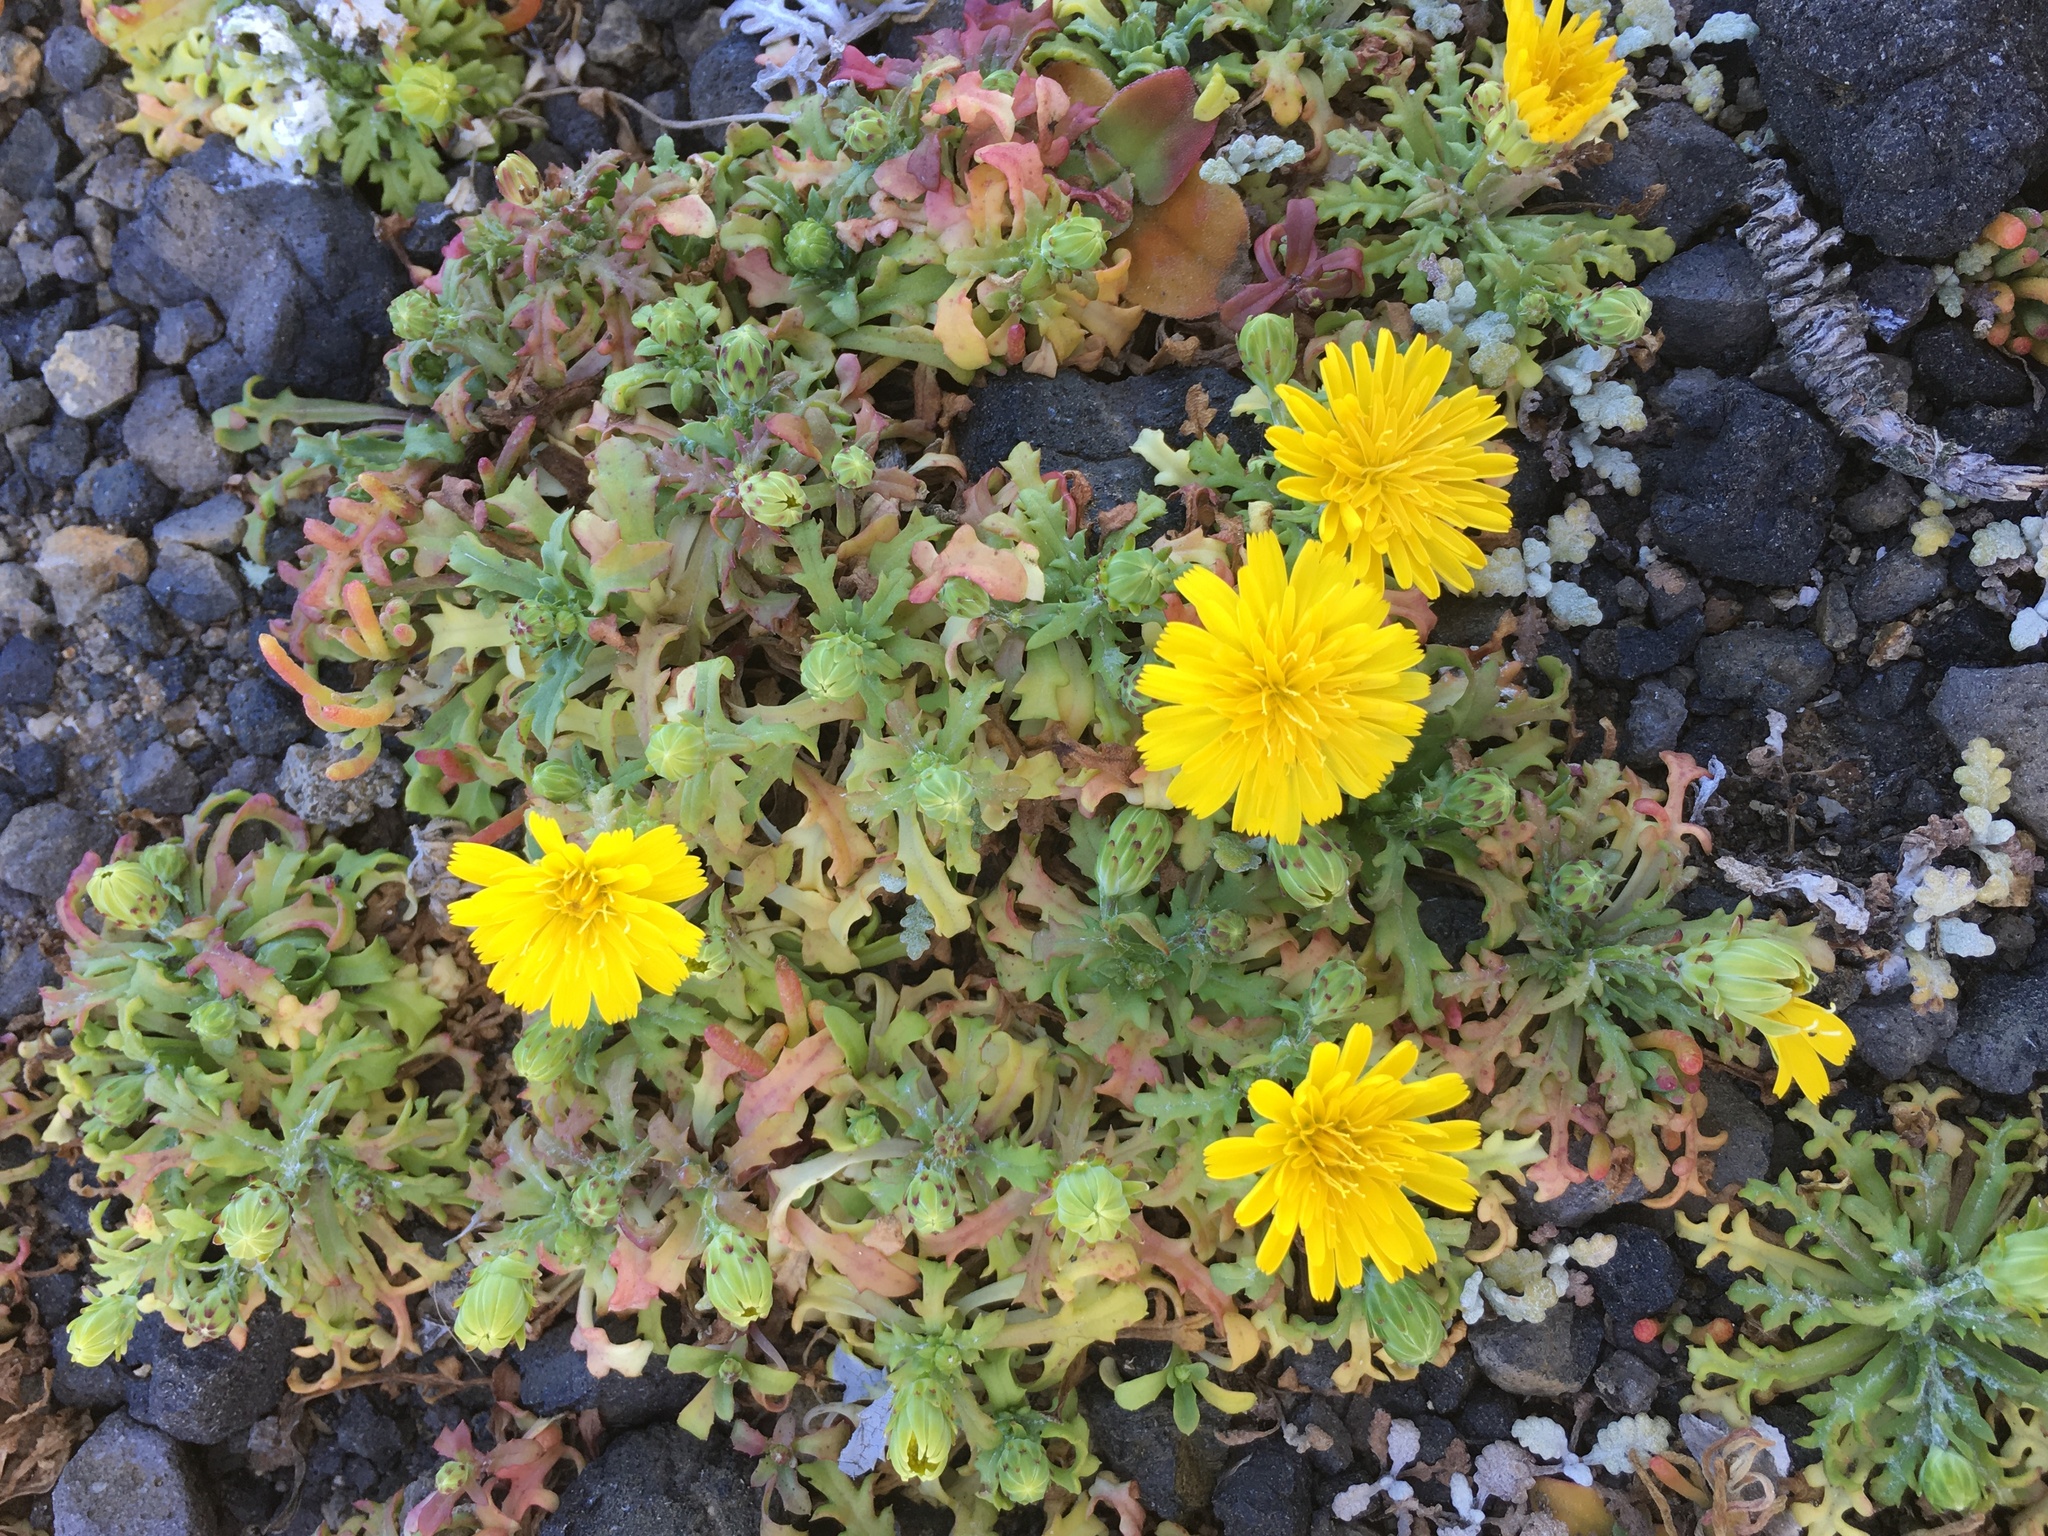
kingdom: Plantae
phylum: Tracheophyta
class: Magnoliopsida
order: Asterales
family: Asteraceae
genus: Malacothrix
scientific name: Malacothrix foliosa
